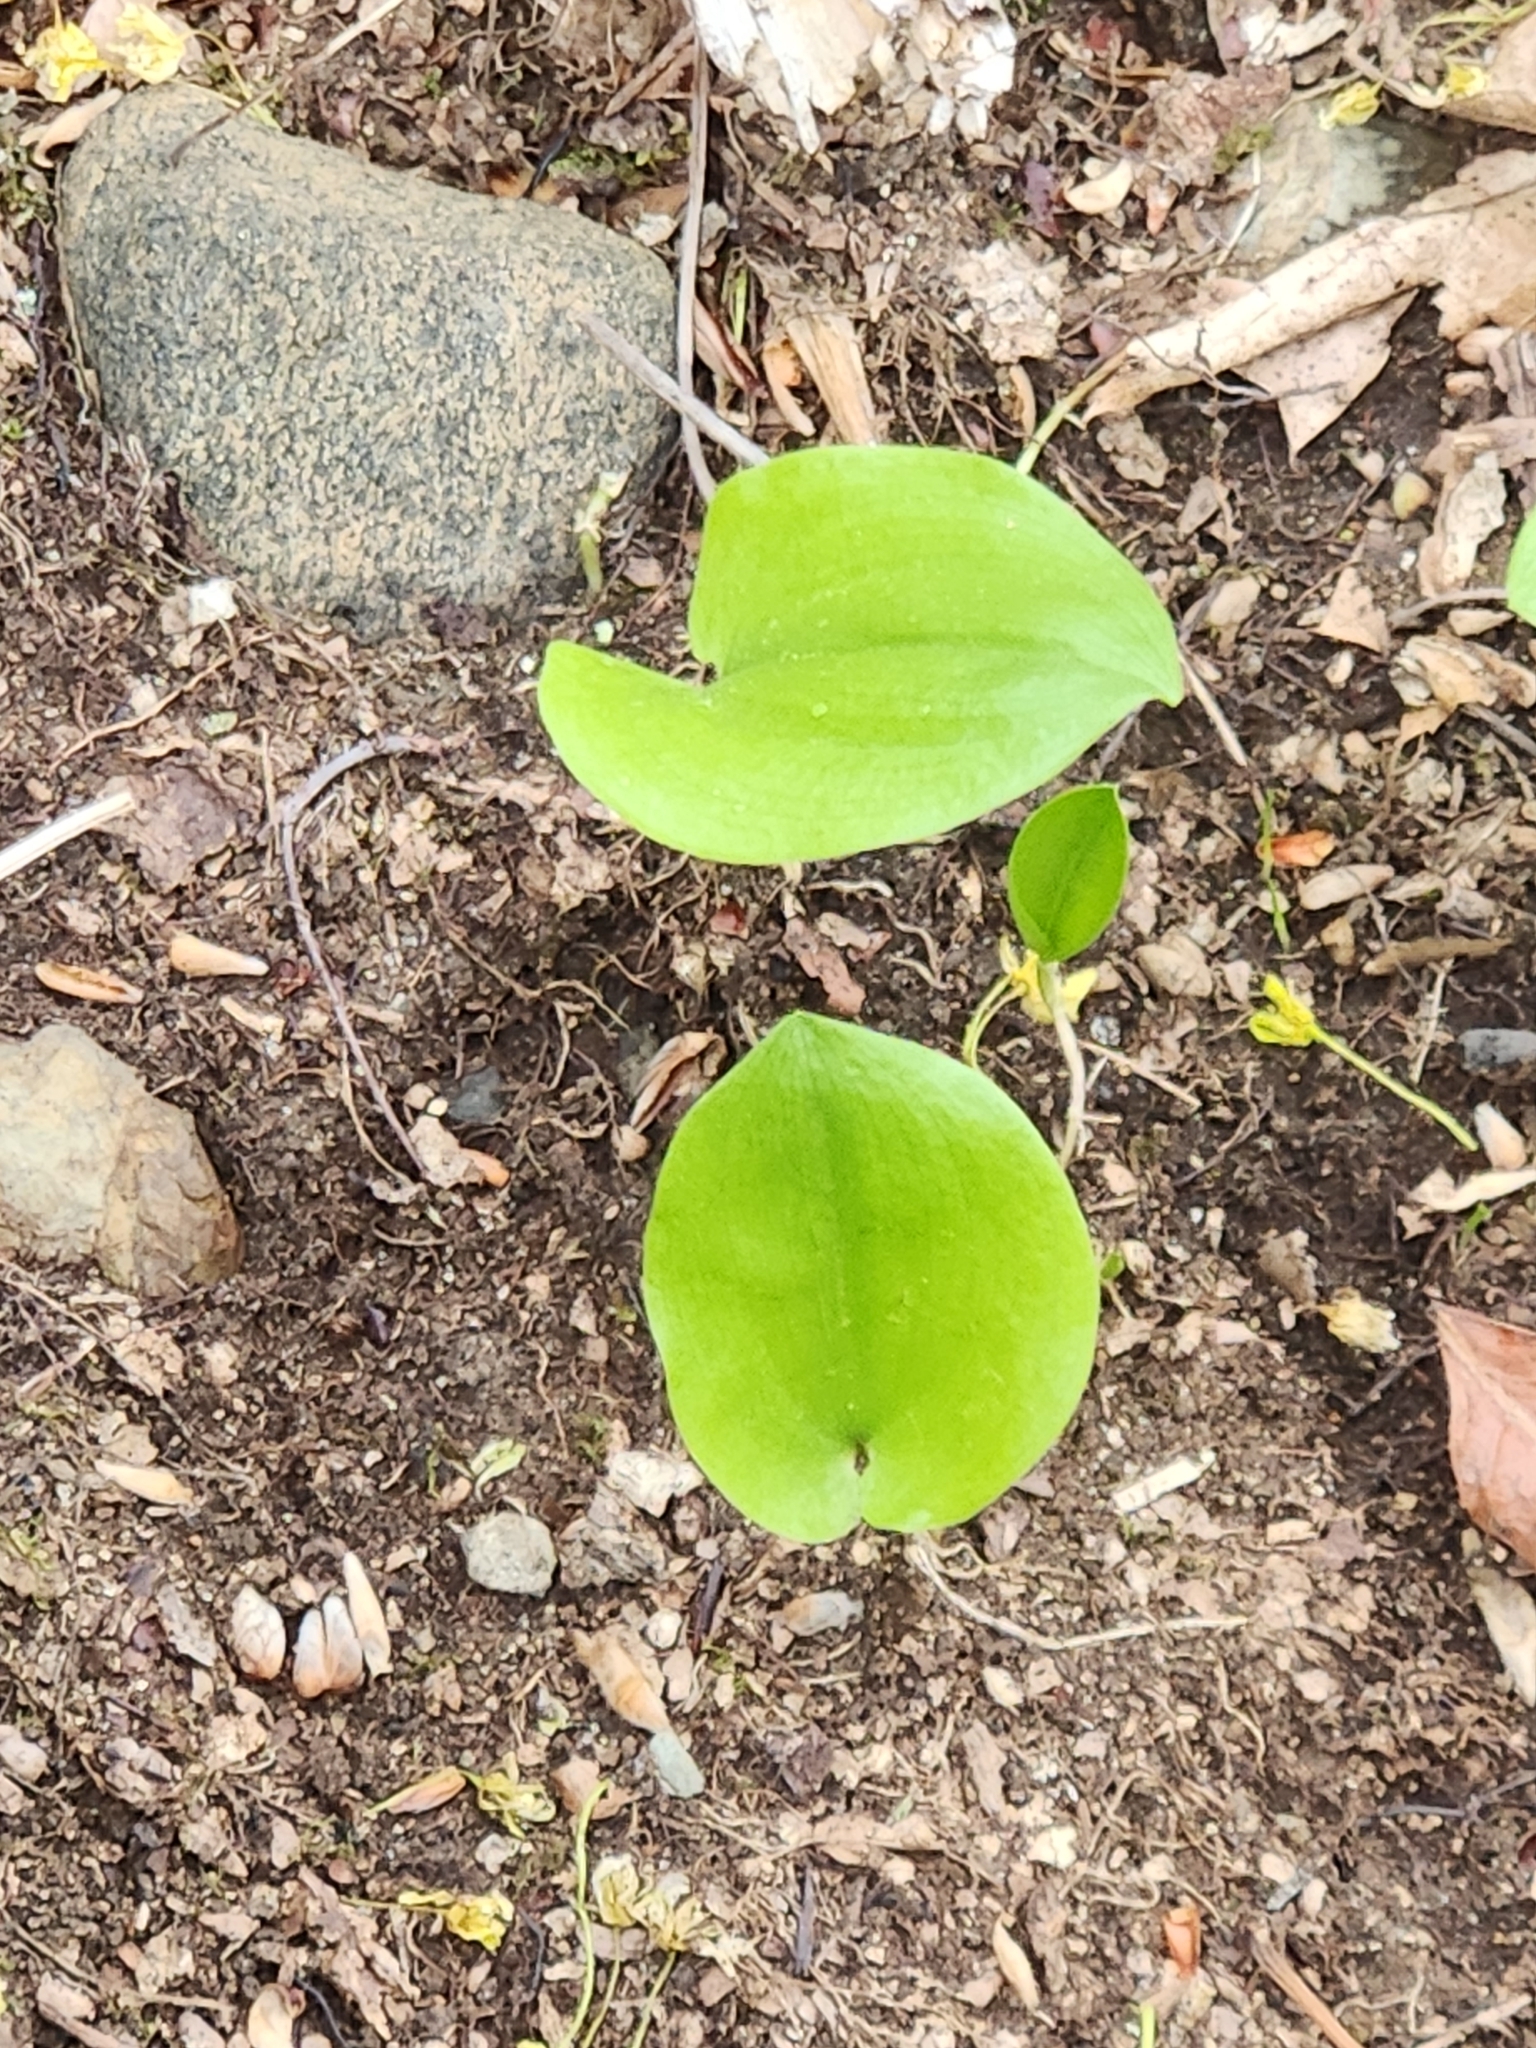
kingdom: Plantae
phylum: Tracheophyta
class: Liliopsida
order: Asparagales
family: Asparagaceae
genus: Maianthemum
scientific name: Maianthemum canadense
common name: False lily-of-the-valley
